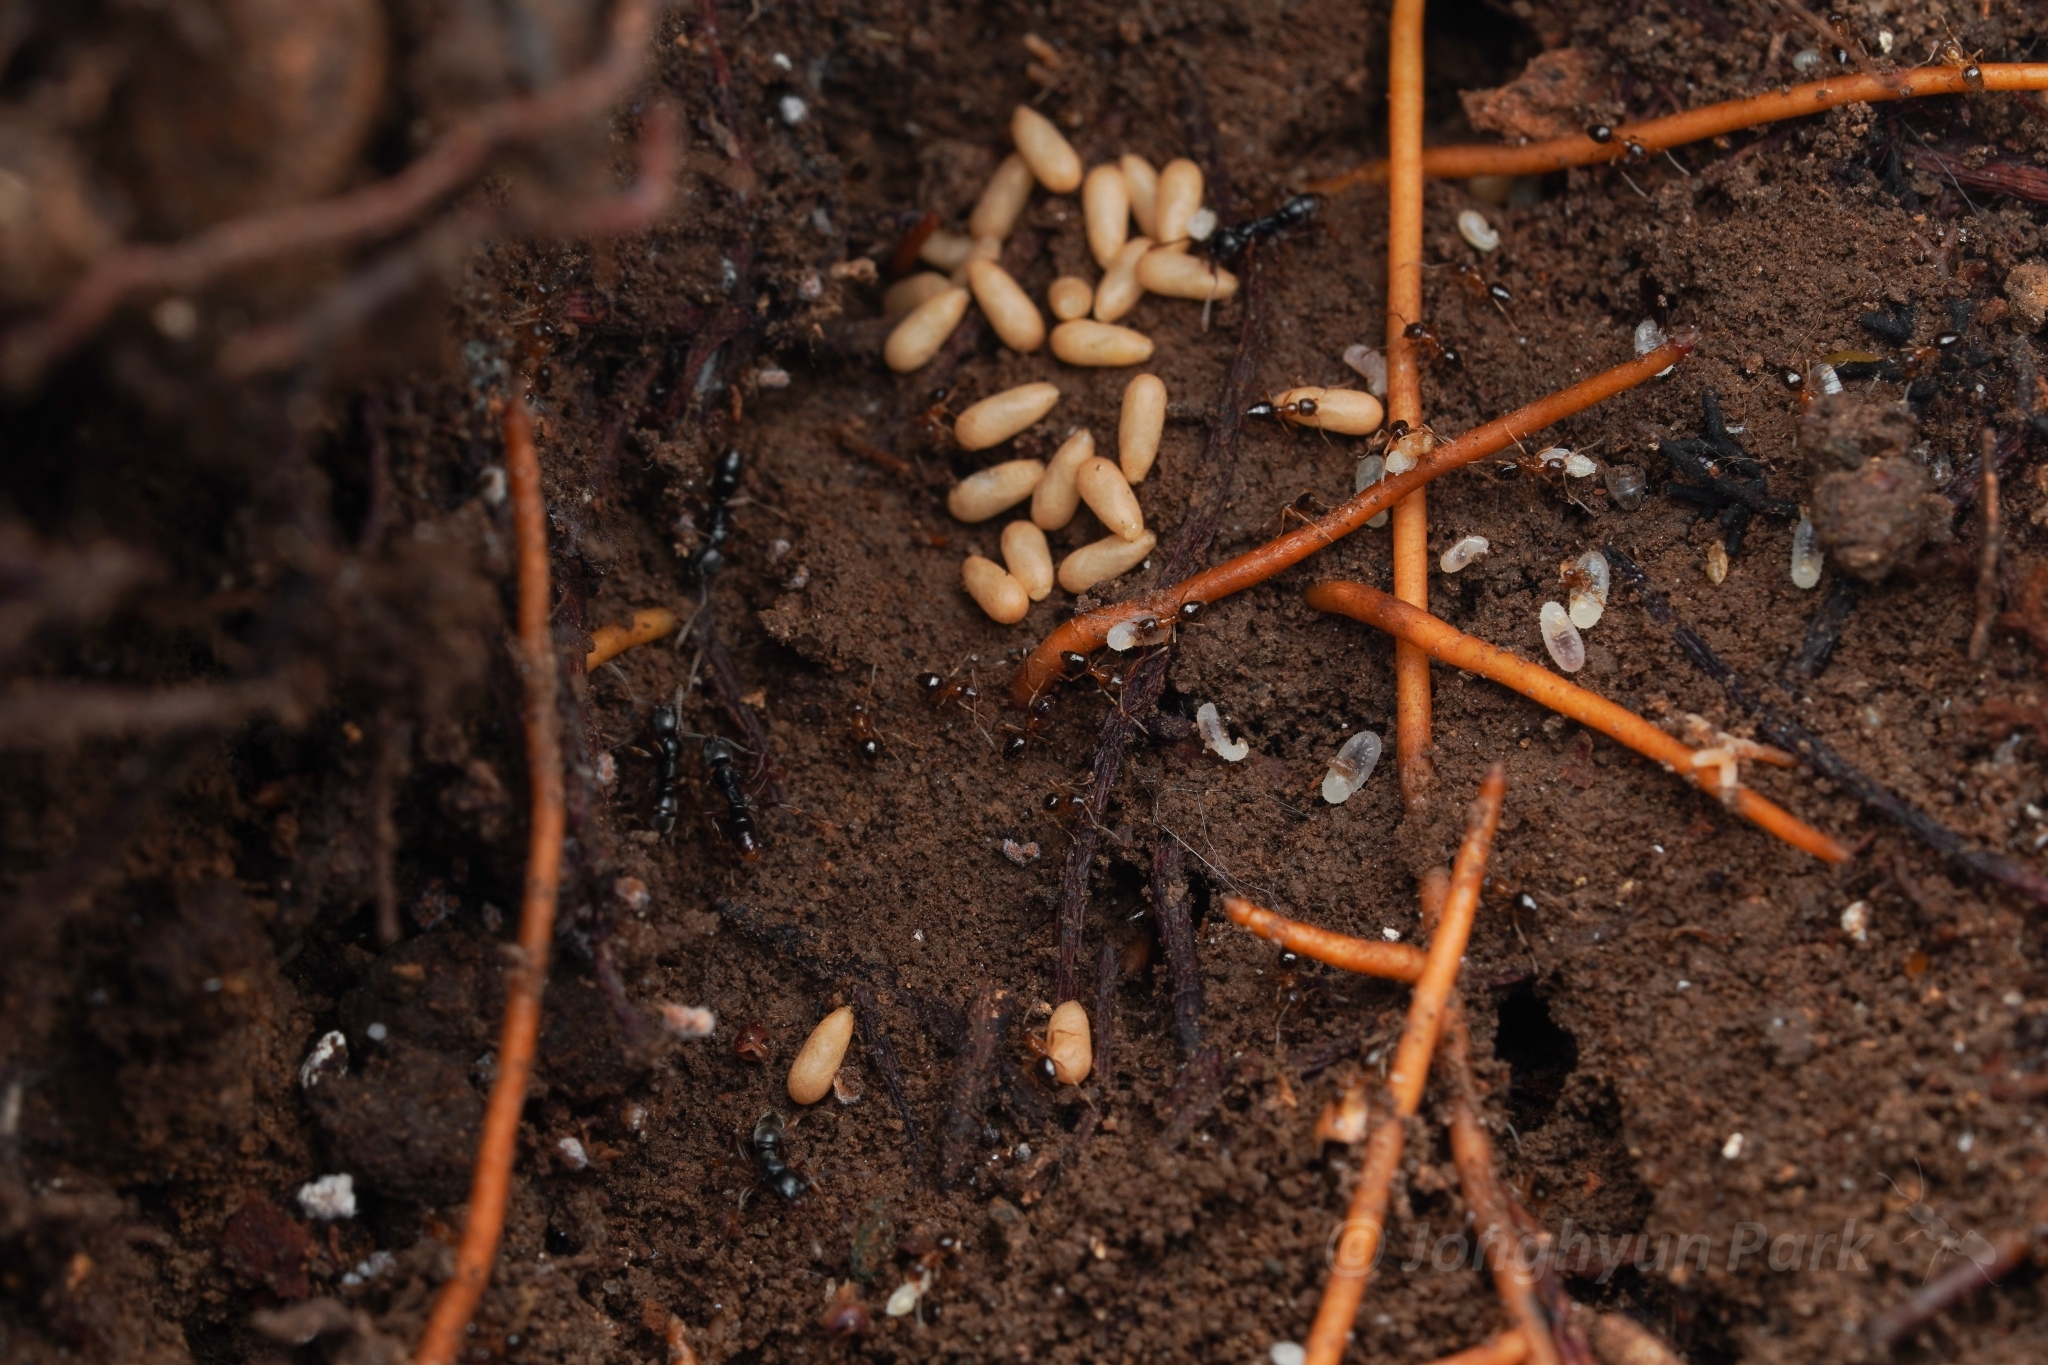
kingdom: Animalia
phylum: Arthropoda
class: Insecta
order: Hymenoptera
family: Formicidae
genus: Brachyponera
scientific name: Brachyponera
